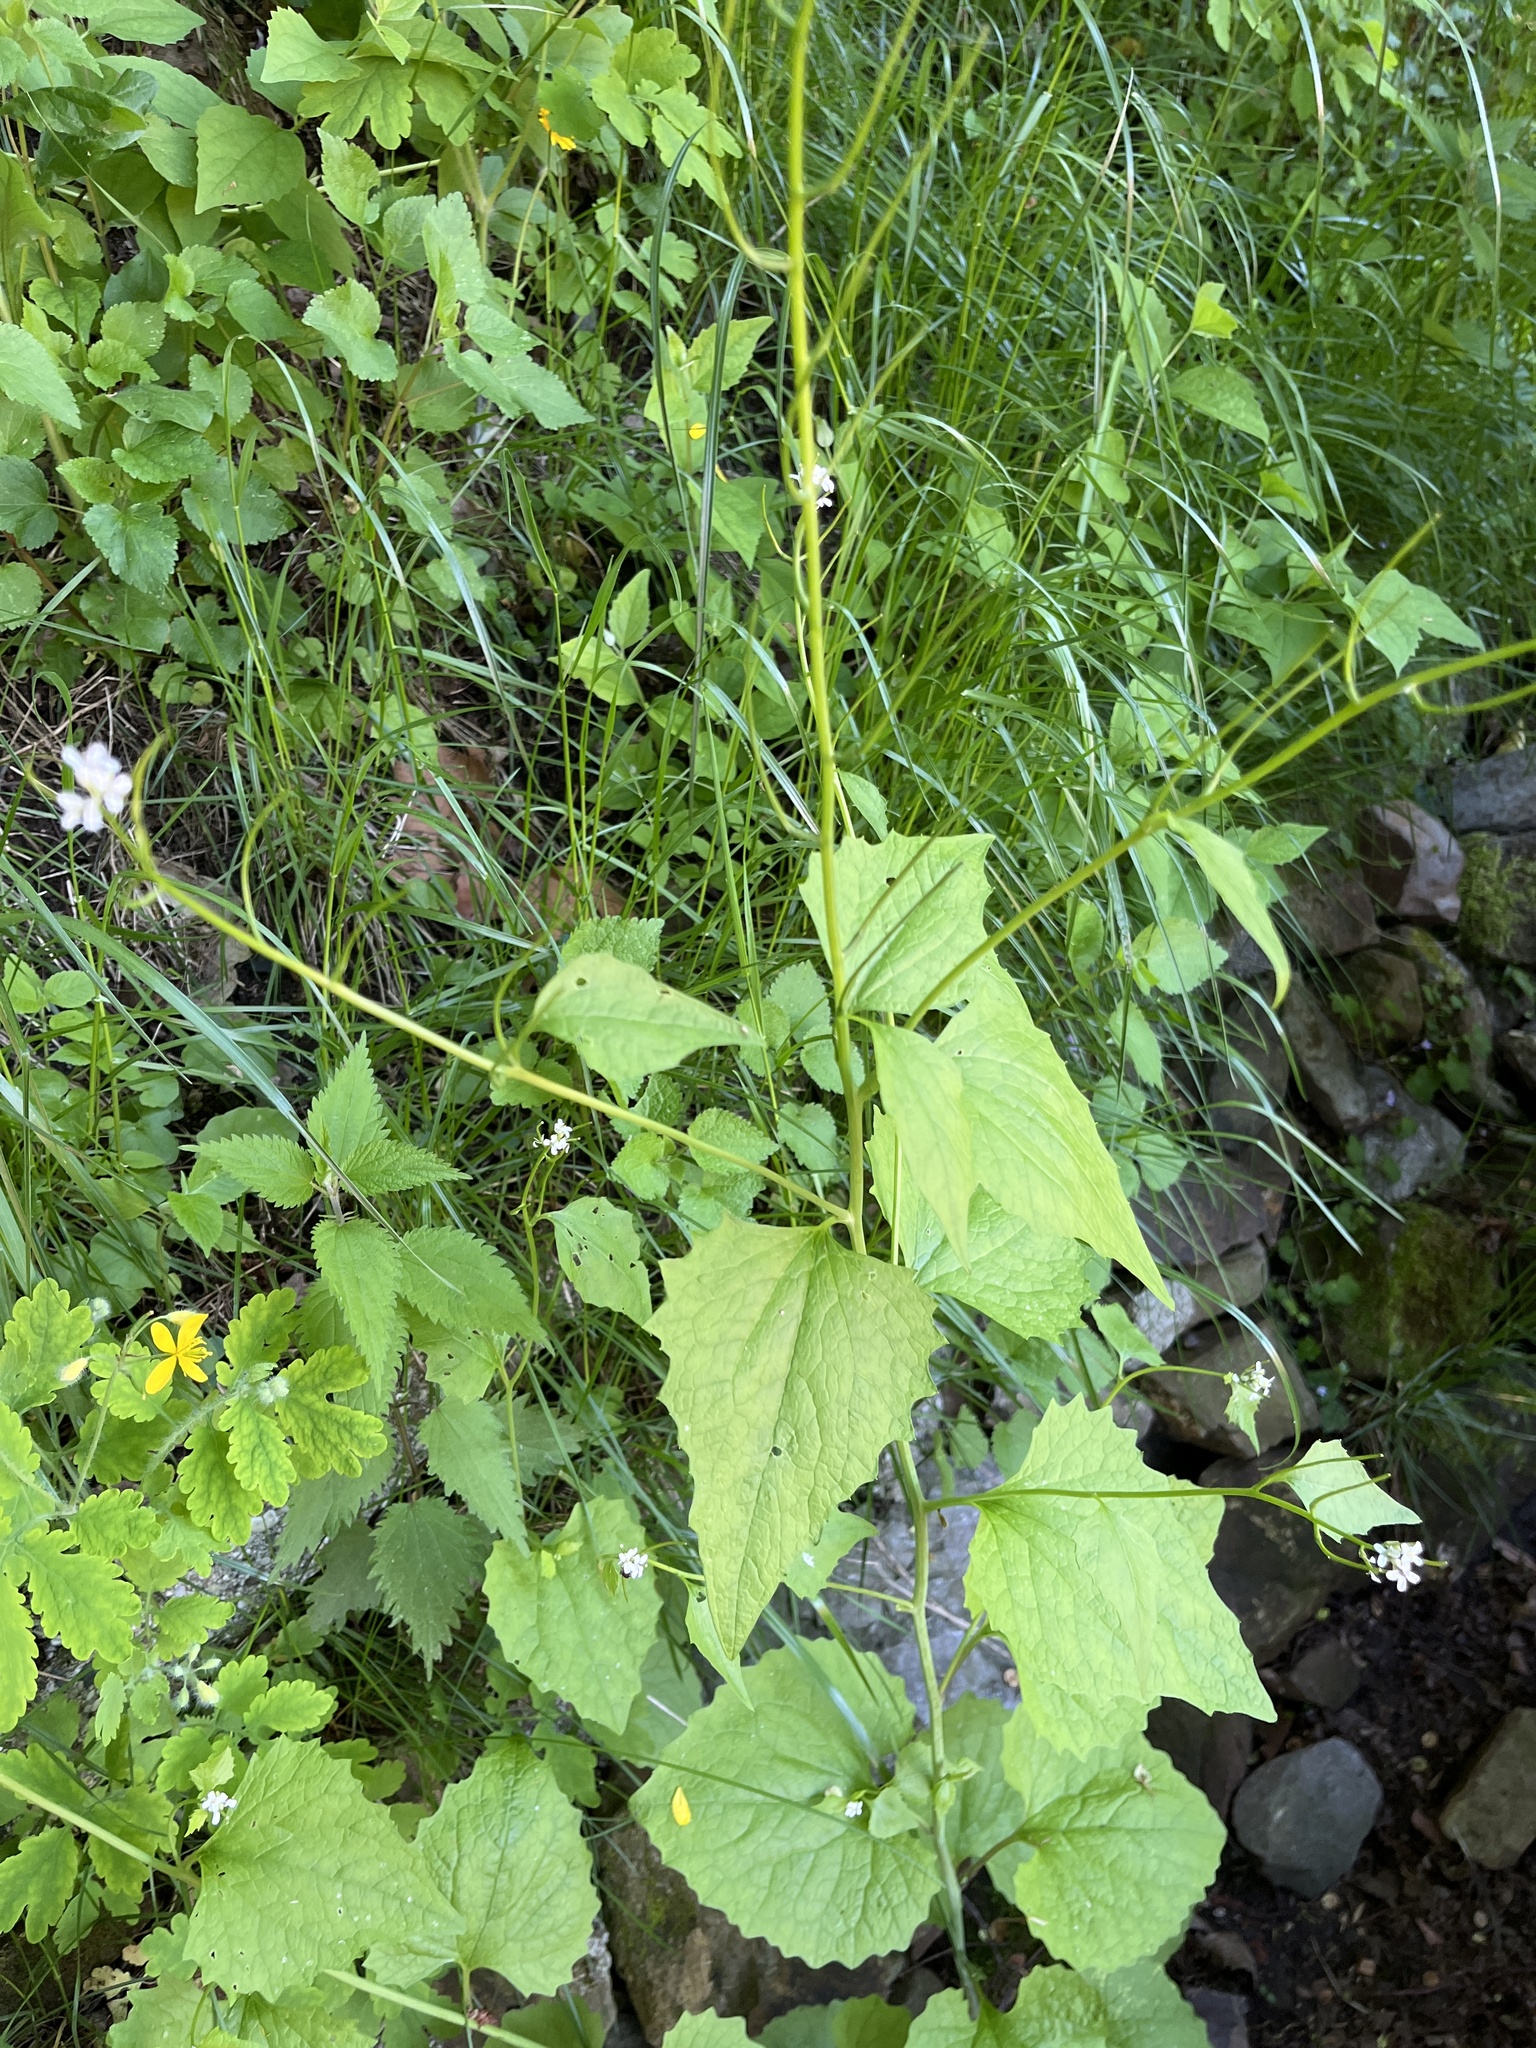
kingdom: Plantae
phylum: Tracheophyta
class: Magnoliopsida
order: Brassicales
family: Brassicaceae
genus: Alliaria
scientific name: Alliaria petiolata
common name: Garlic mustard
